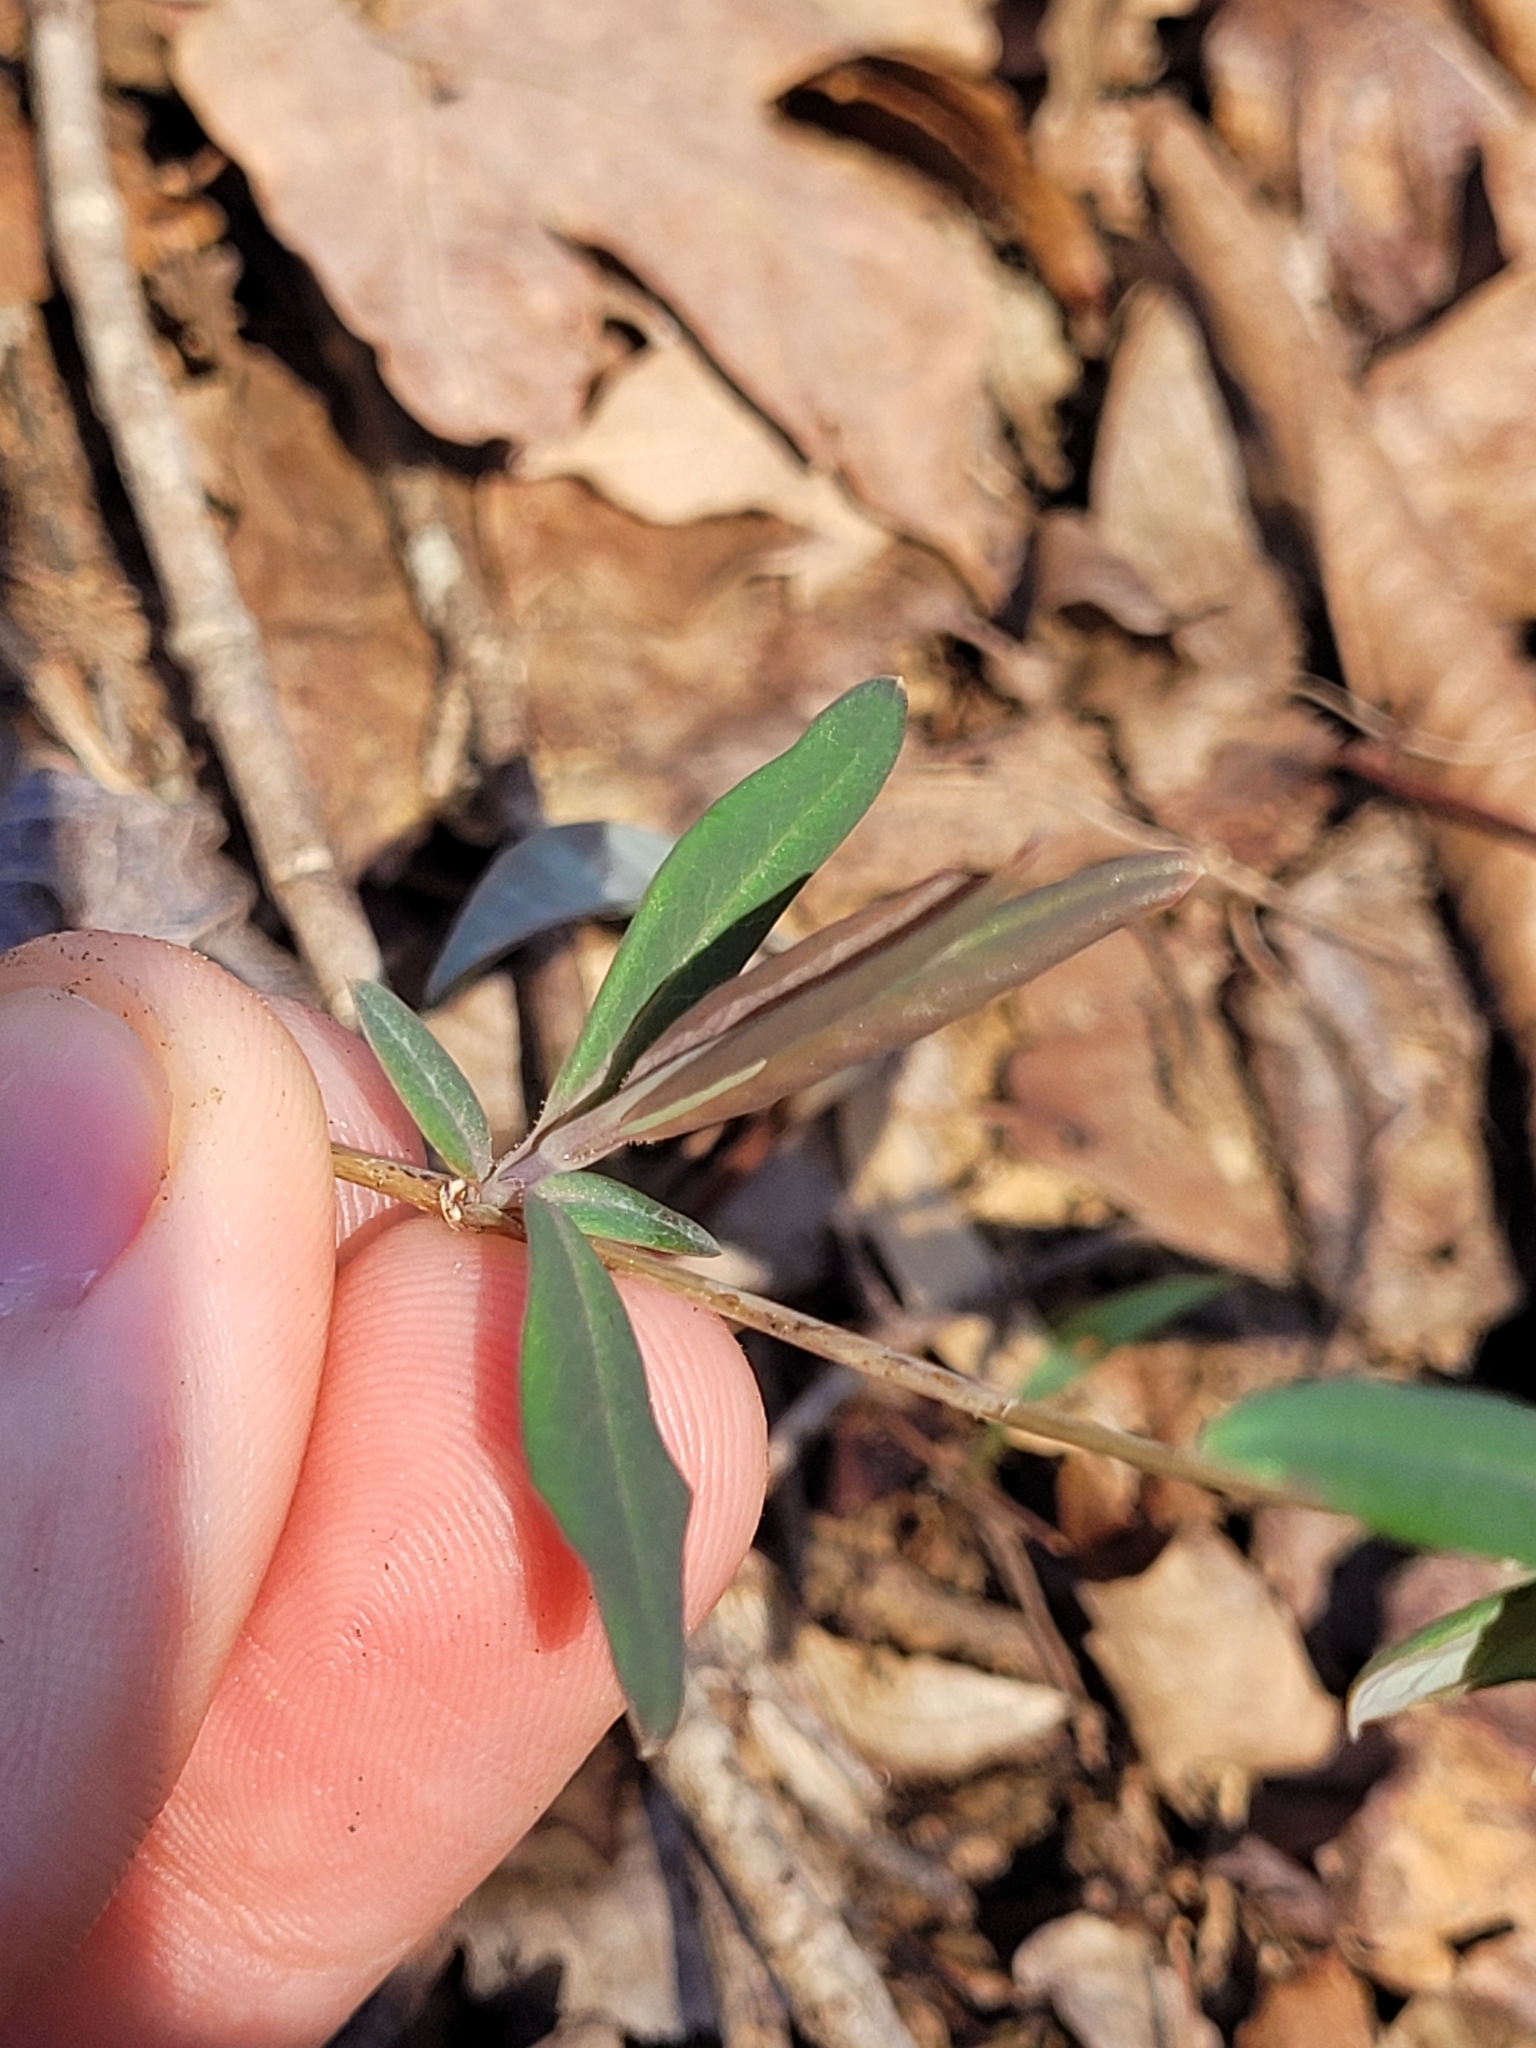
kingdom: Plantae
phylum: Tracheophyta
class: Magnoliopsida
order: Dipsacales
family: Caprifoliaceae
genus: Lonicera
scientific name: Lonicera sempervirens
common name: Coral honeysuckle
